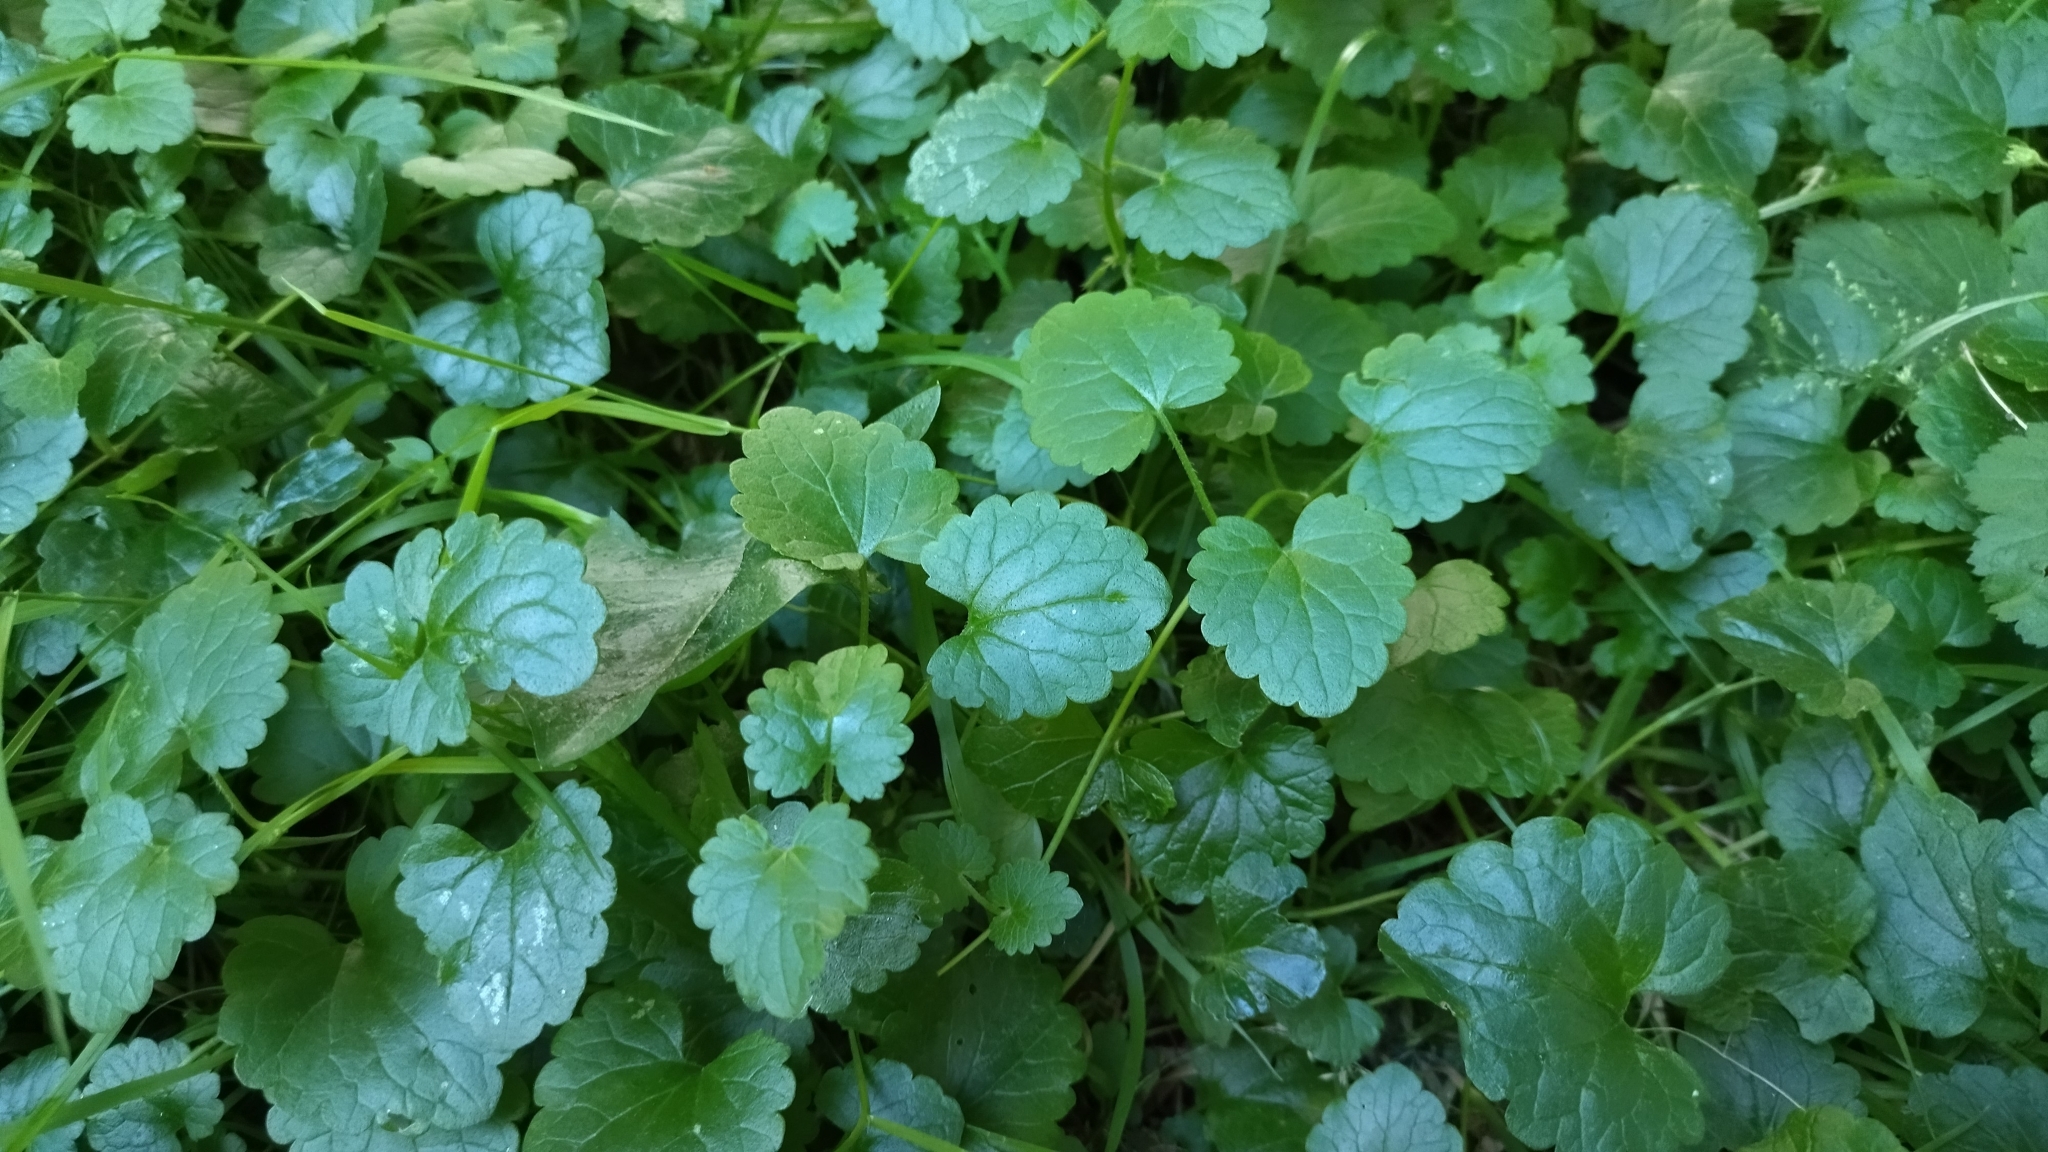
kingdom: Plantae
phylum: Tracheophyta
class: Magnoliopsida
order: Lamiales
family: Lamiaceae
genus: Glechoma
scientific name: Glechoma hederacea
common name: Ground ivy
